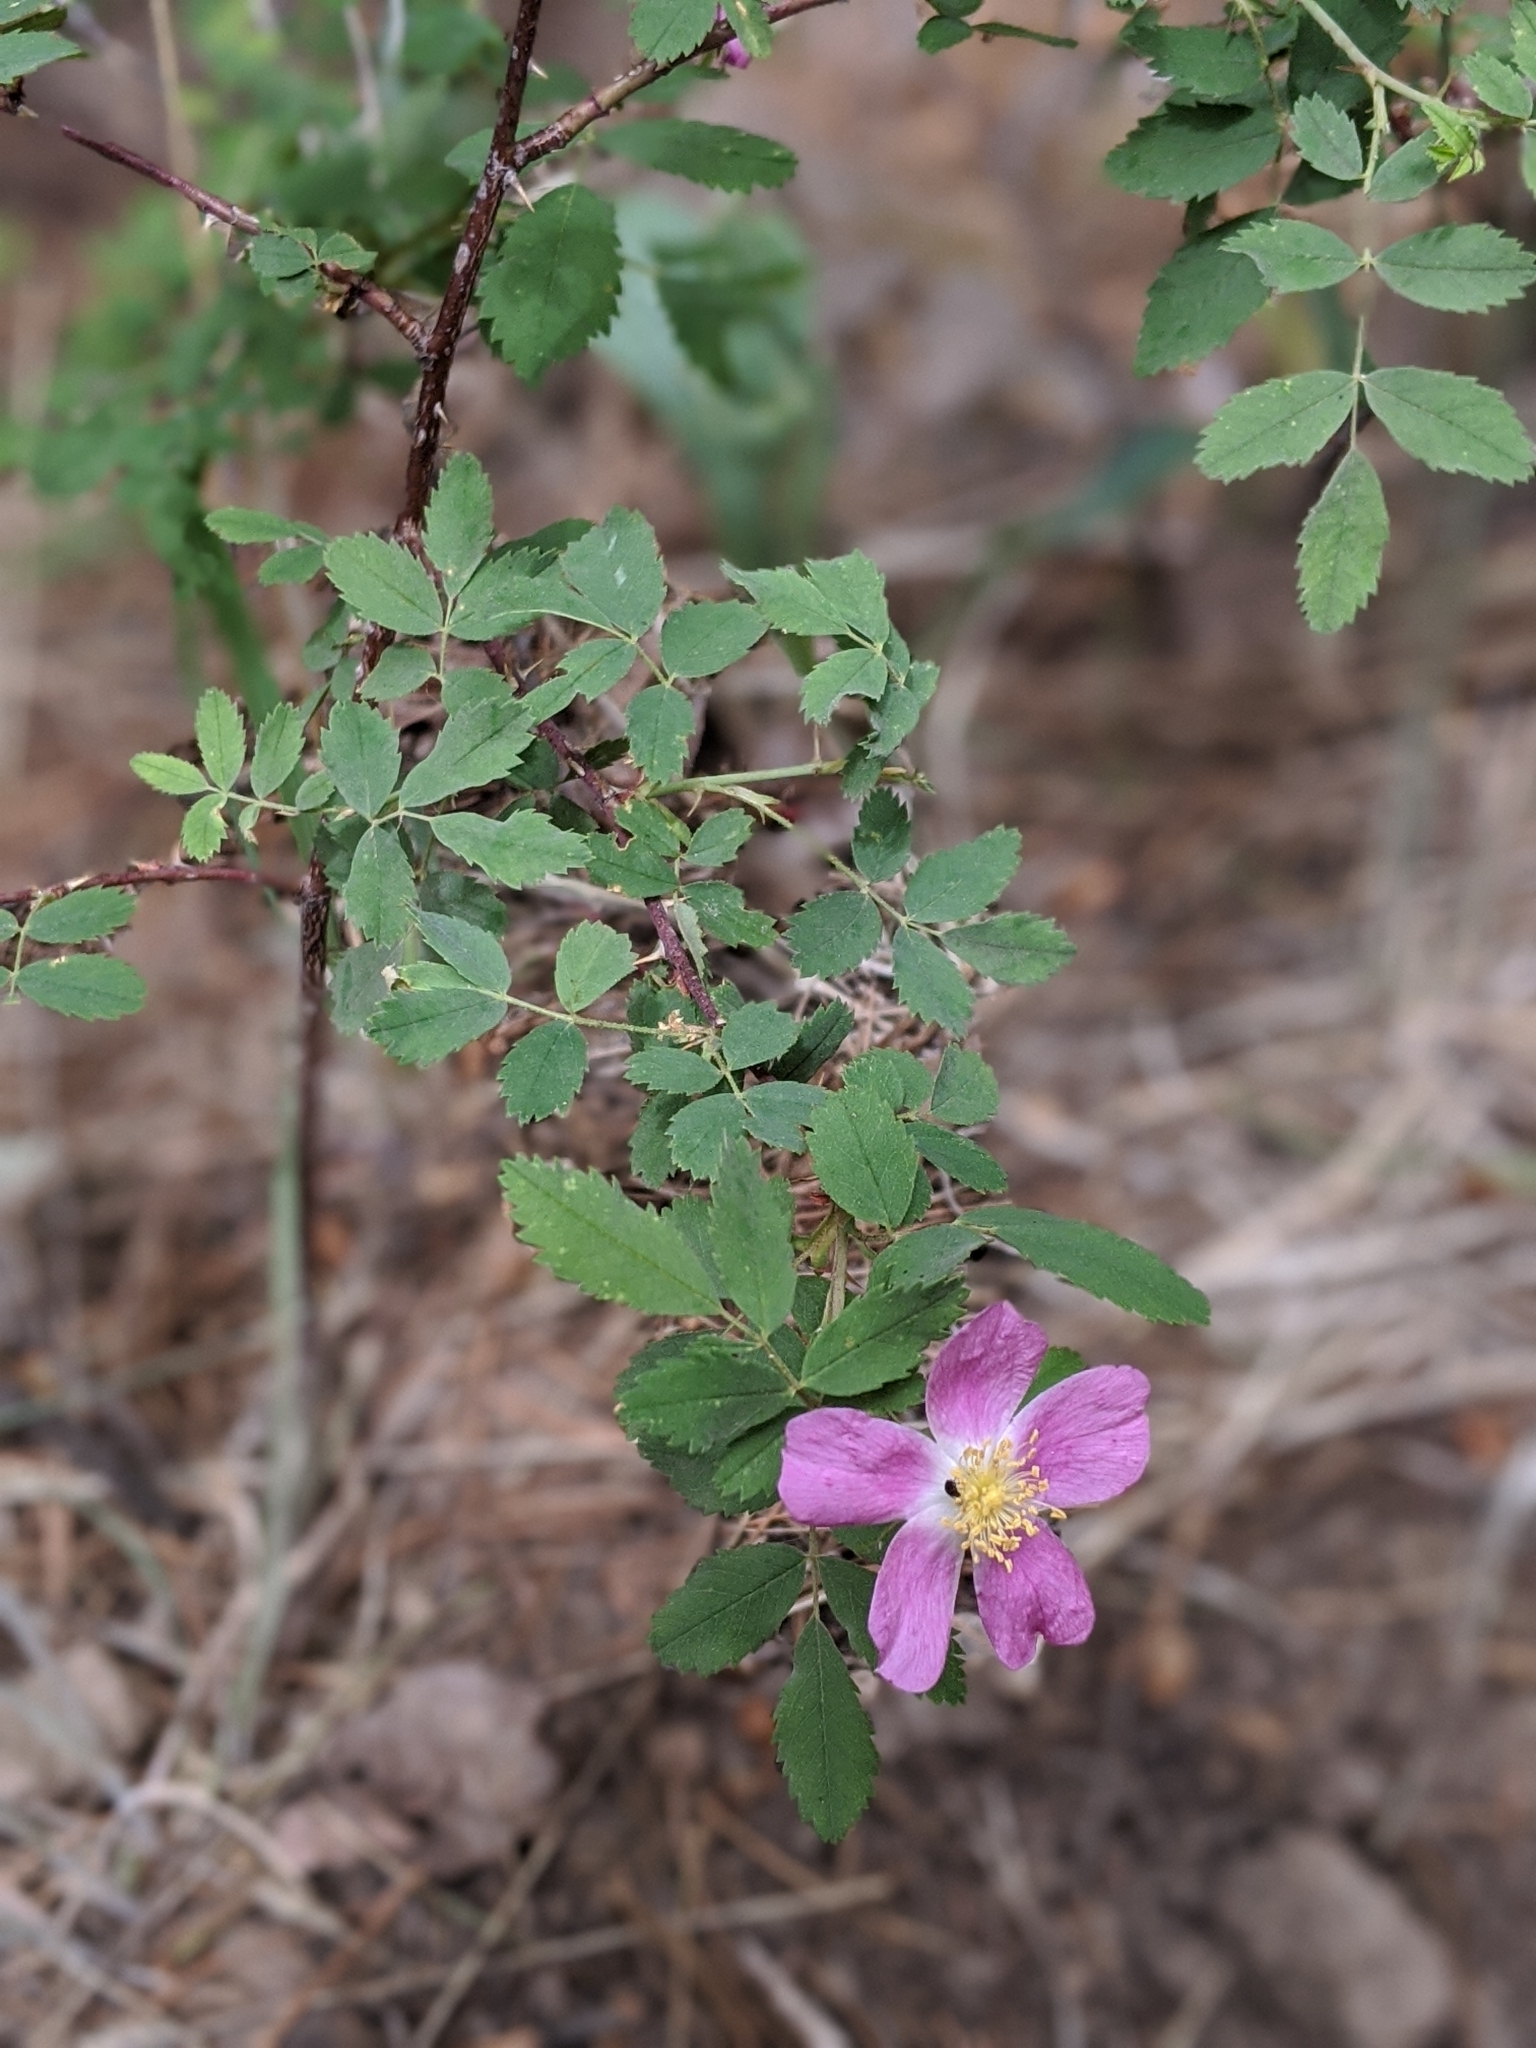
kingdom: Plantae
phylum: Tracheophyta
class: Magnoliopsida
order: Rosales
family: Rosaceae
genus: Rosa
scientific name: Rosa woodsii
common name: Woods's rose
